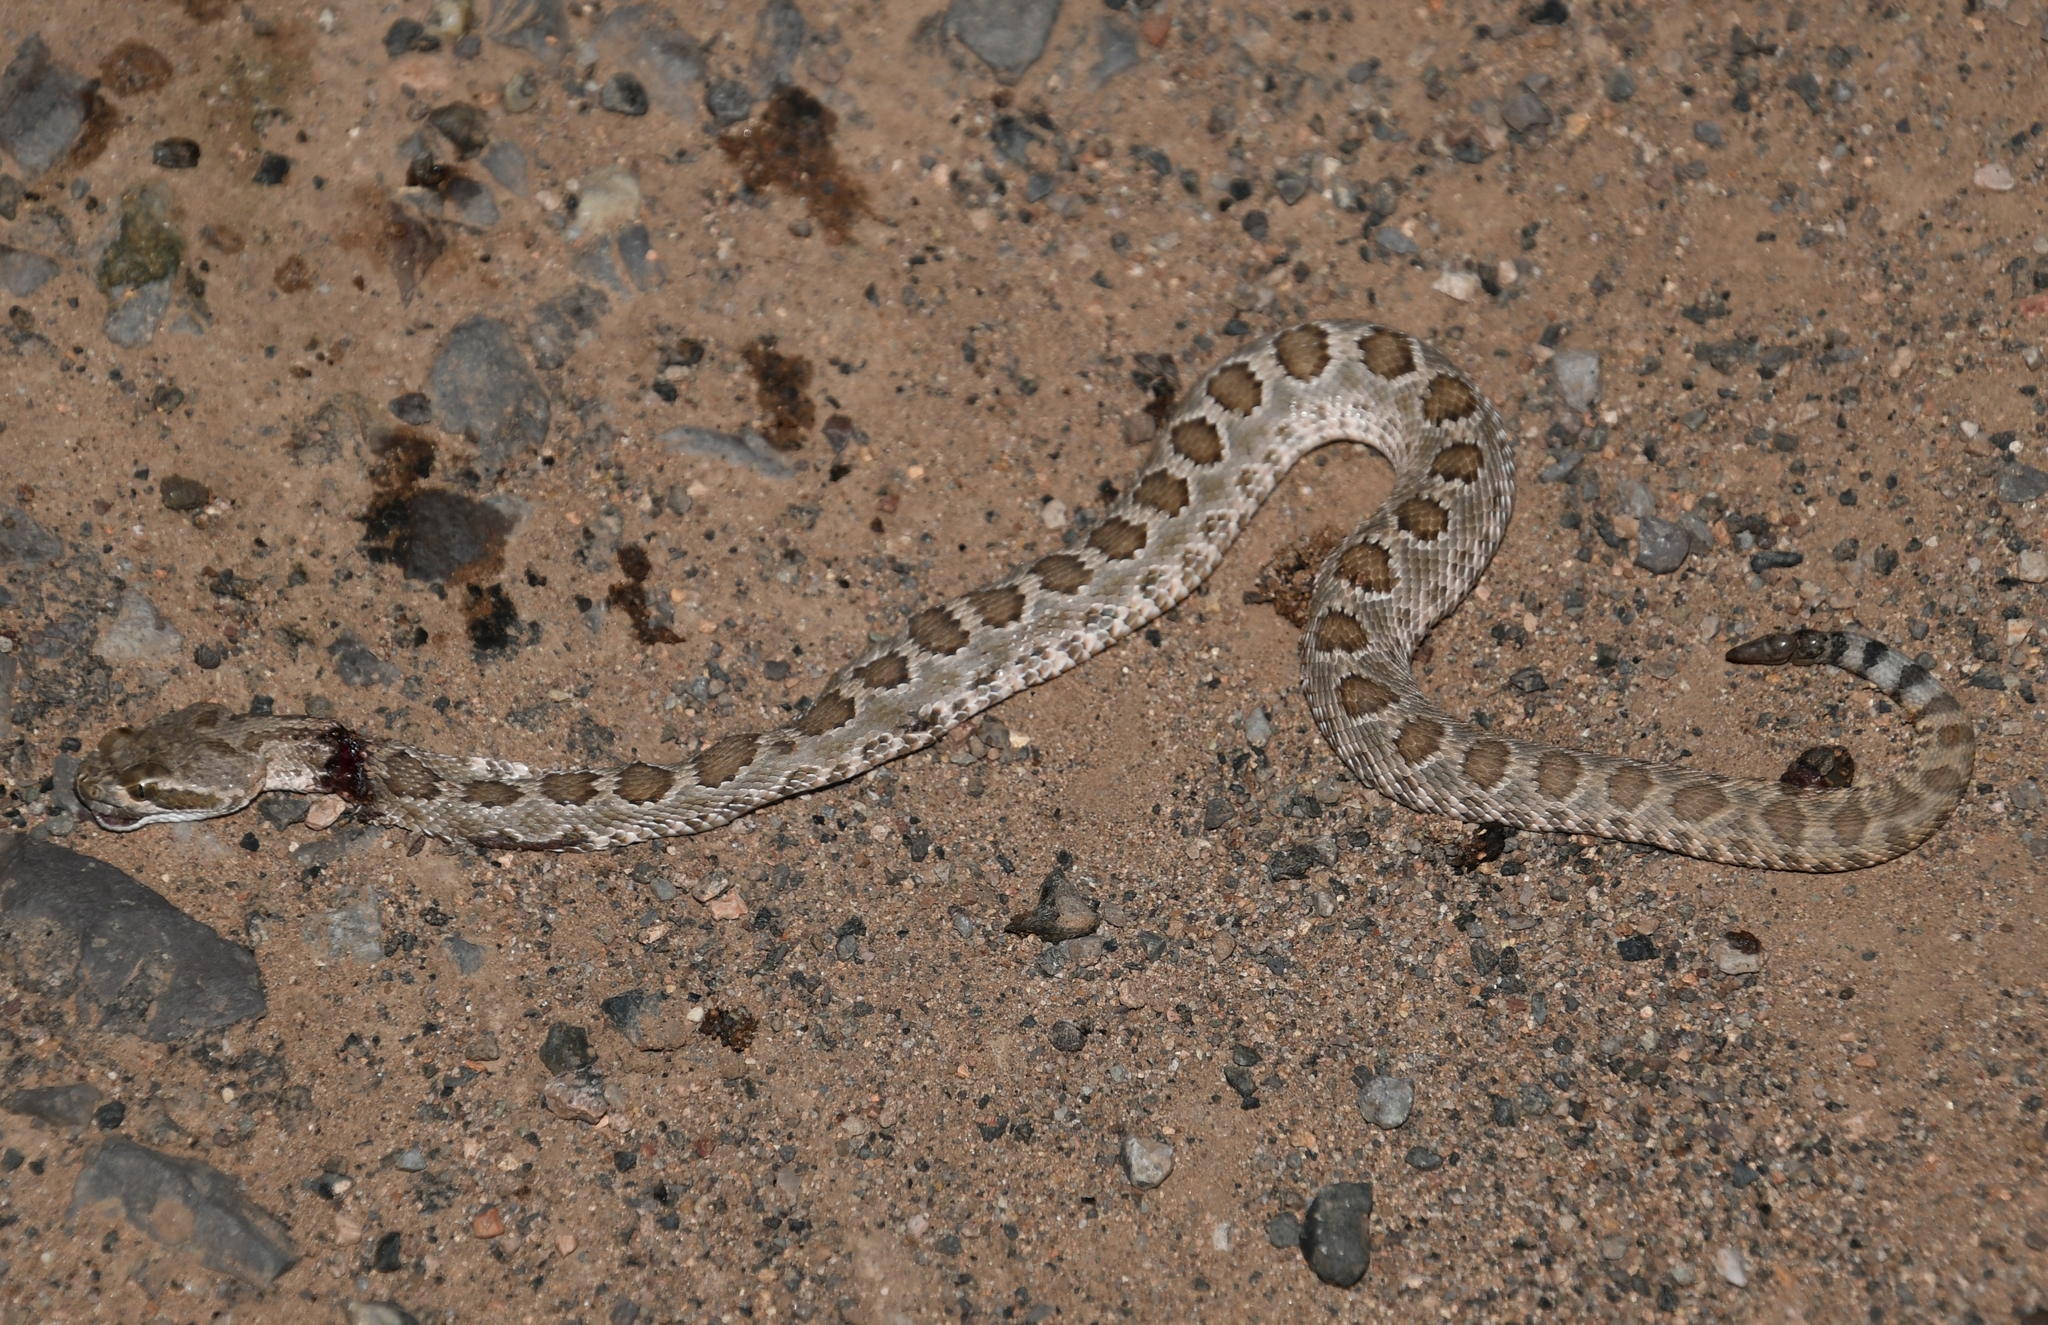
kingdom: Animalia
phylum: Chordata
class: Squamata
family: Viperidae
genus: Crotalus
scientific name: Crotalus scutulatus
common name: Scutulatus
